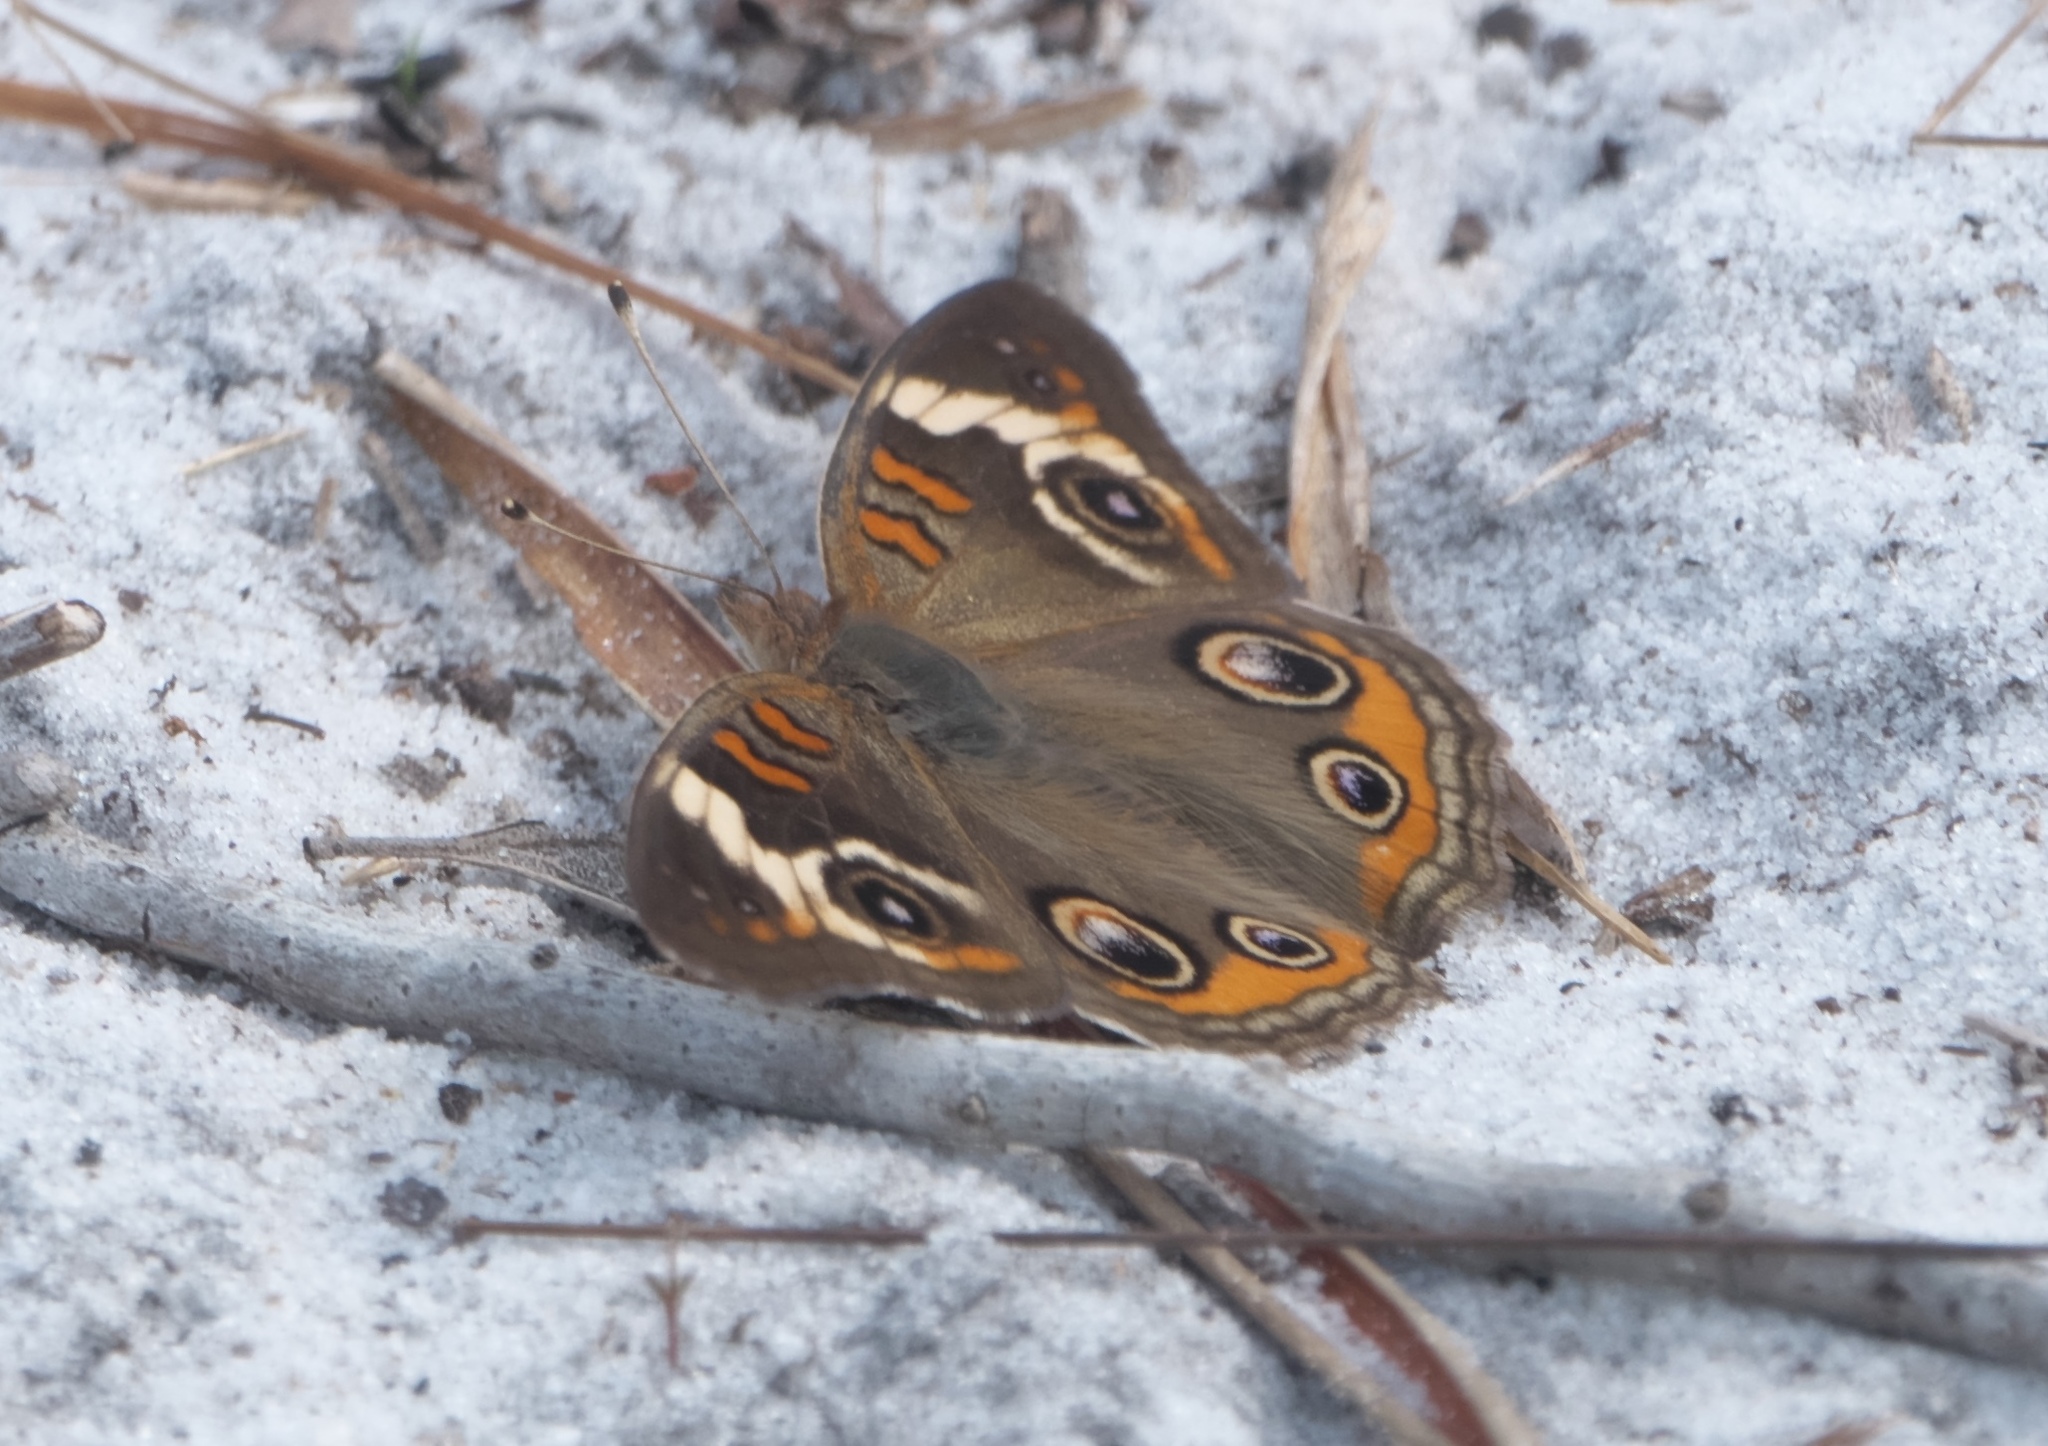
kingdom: Animalia
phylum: Arthropoda
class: Insecta
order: Lepidoptera
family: Nymphalidae
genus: Junonia
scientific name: Junonia coenia
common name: Common buckeye
